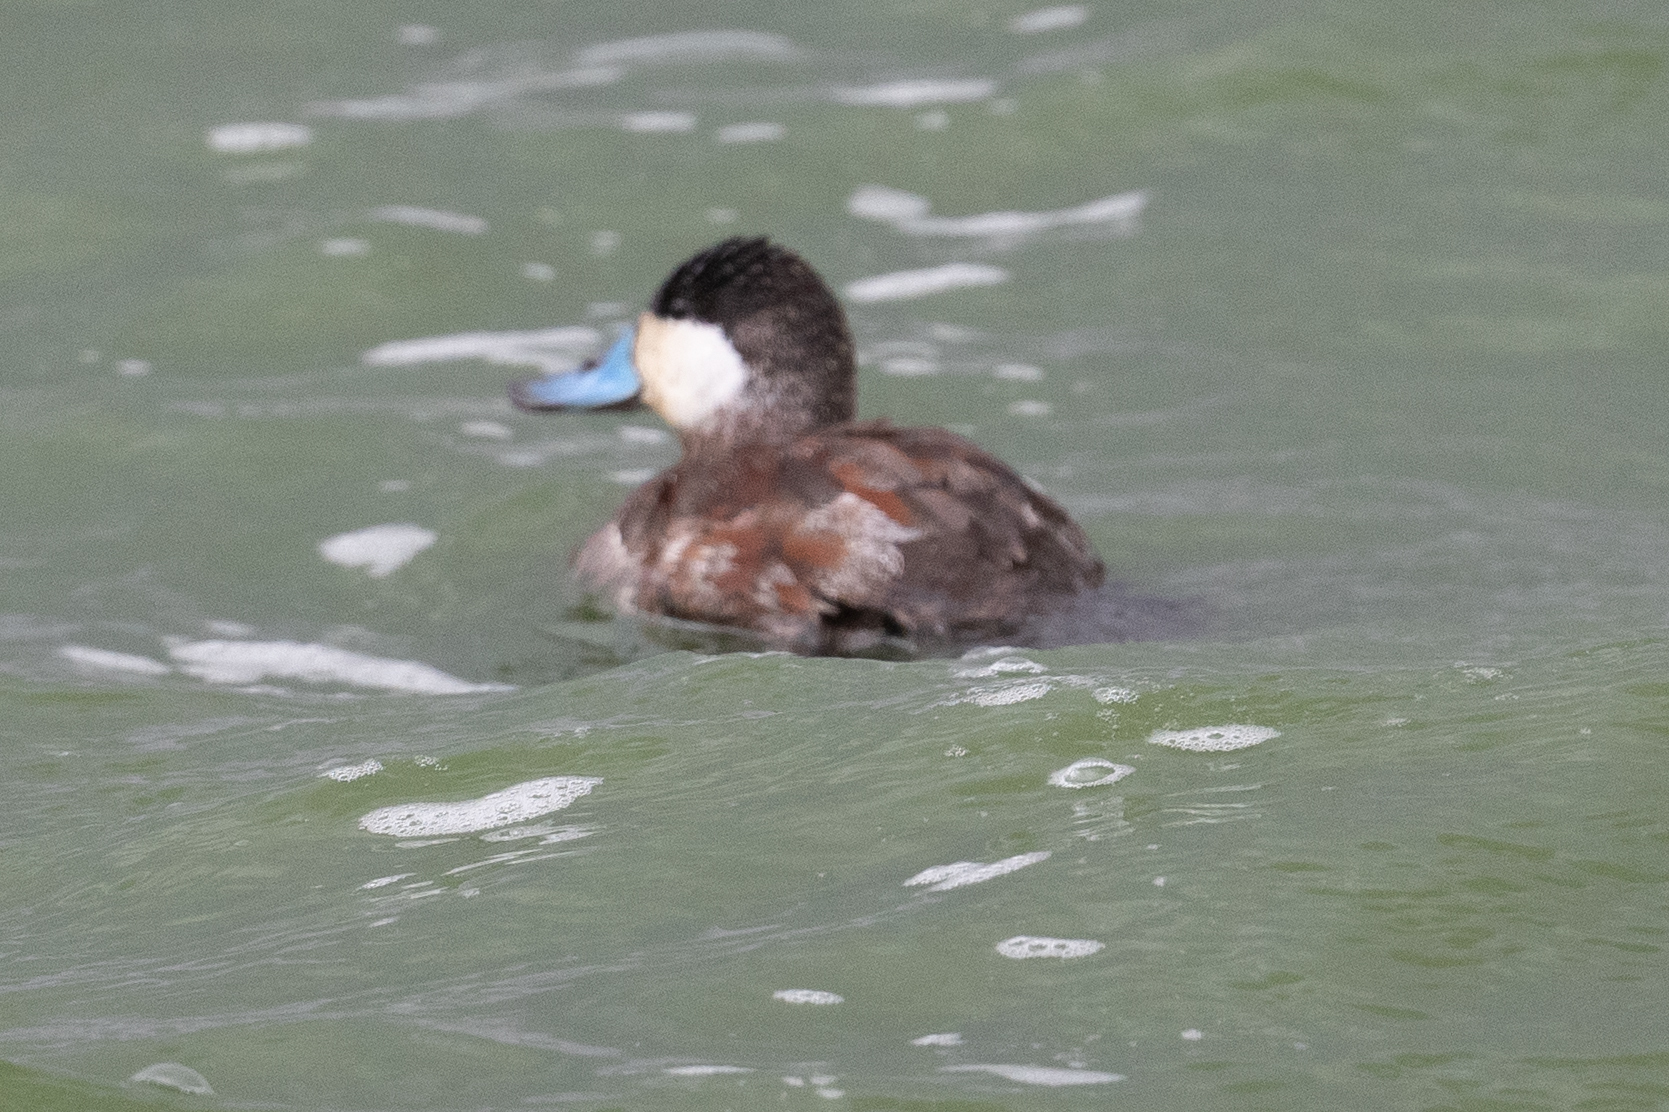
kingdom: Animalia
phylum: Chordata
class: Aves
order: Anseriformes
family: Anatidae
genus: Oxyura
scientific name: Oxyura jamaicensis
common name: Ruddy duck
